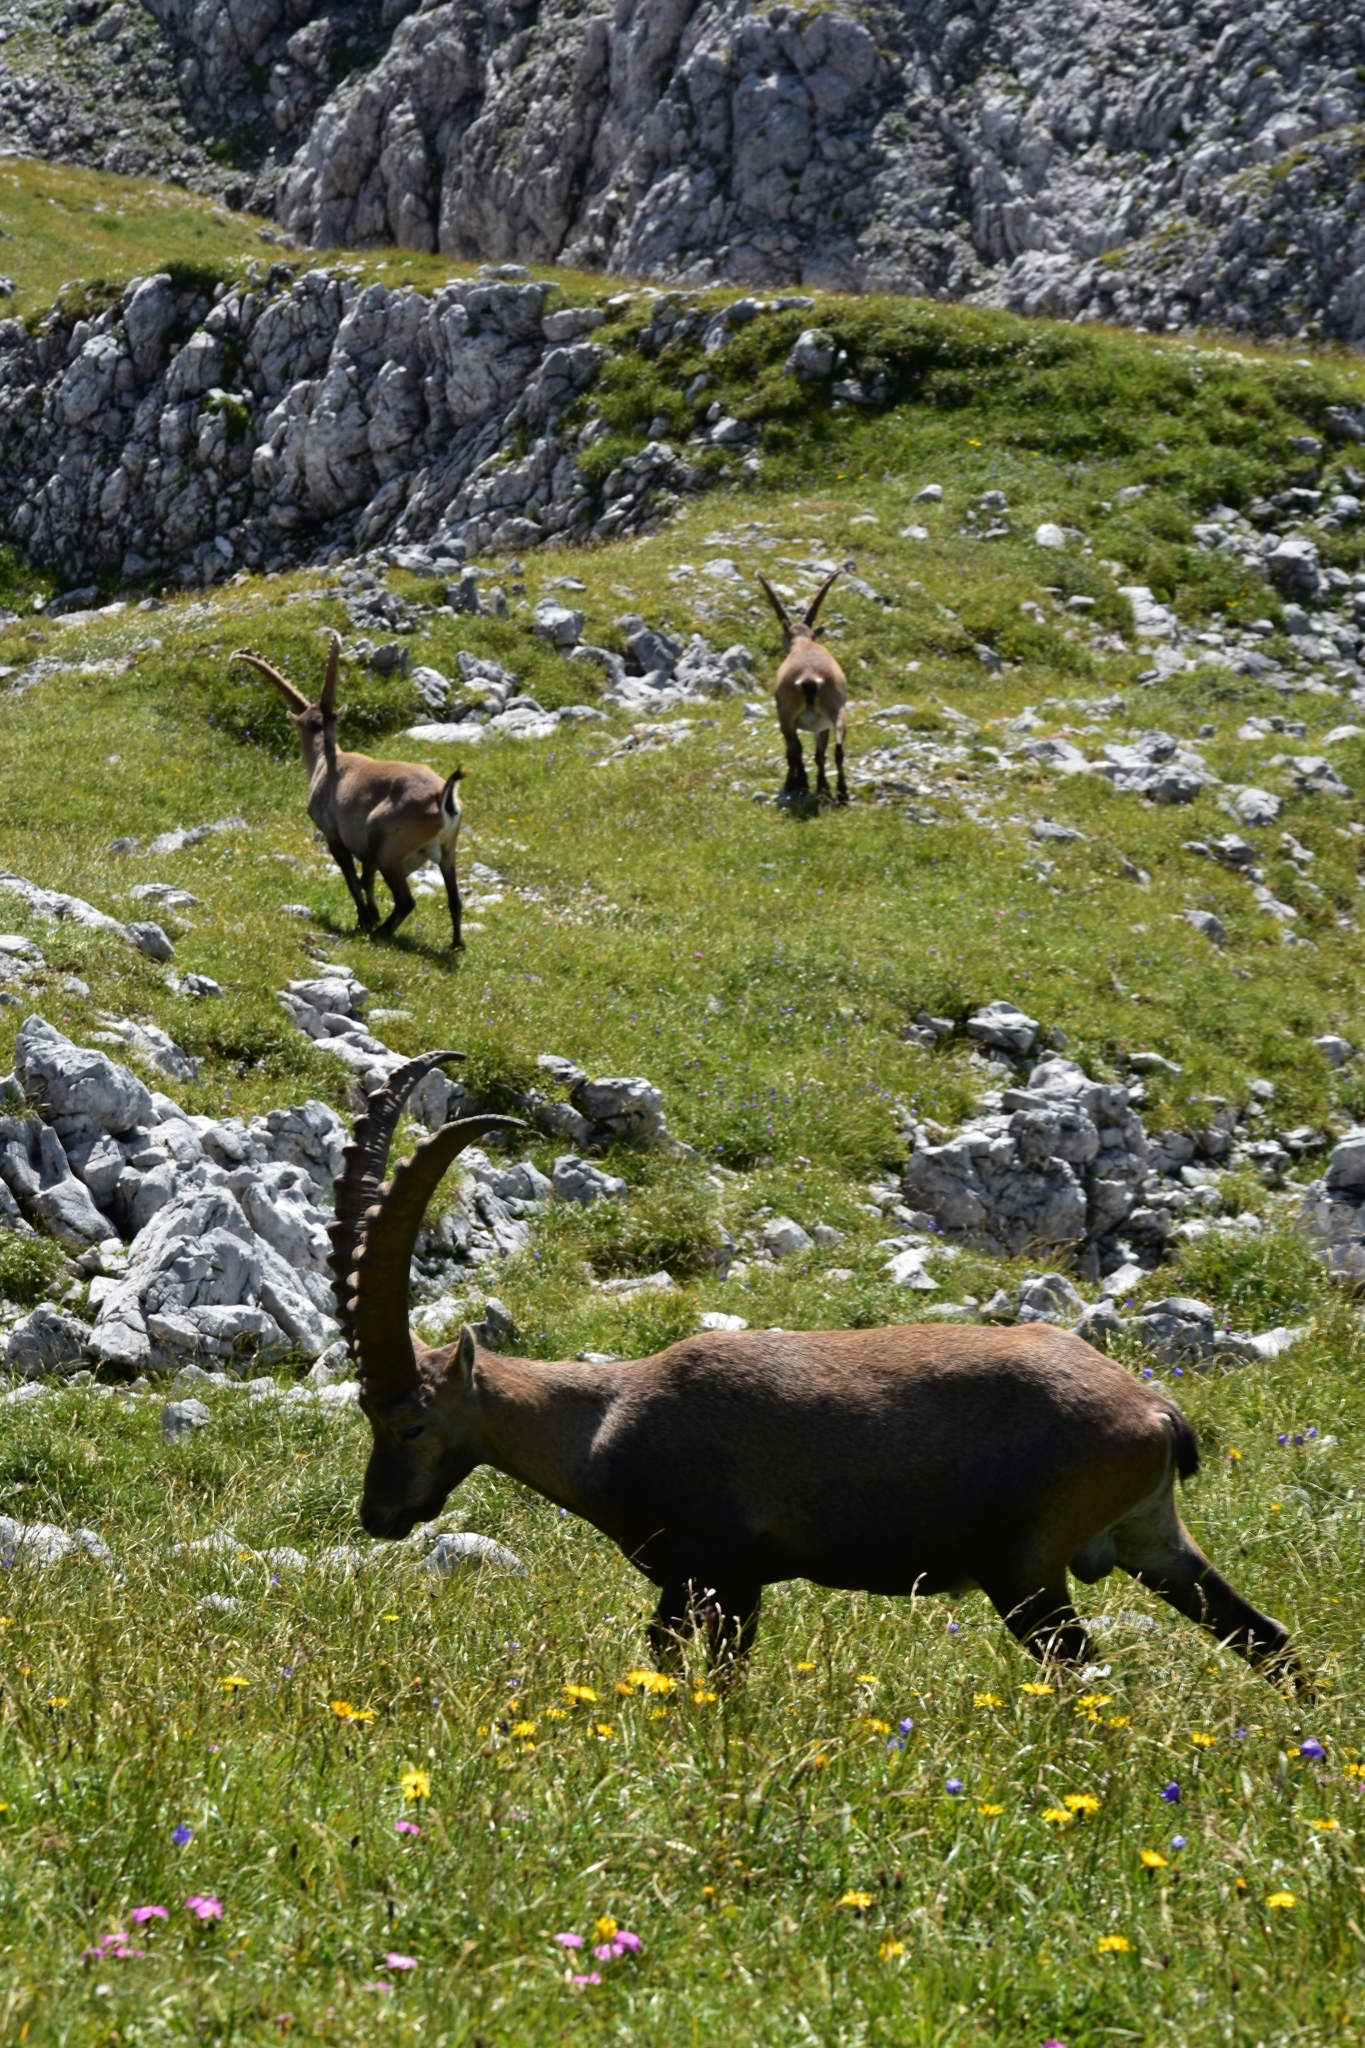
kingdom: Animalia
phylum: Chordata
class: Mammalia
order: Artiodactyla
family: Bovidae
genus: Capra
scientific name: Capra ibex
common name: Alpine ibex
